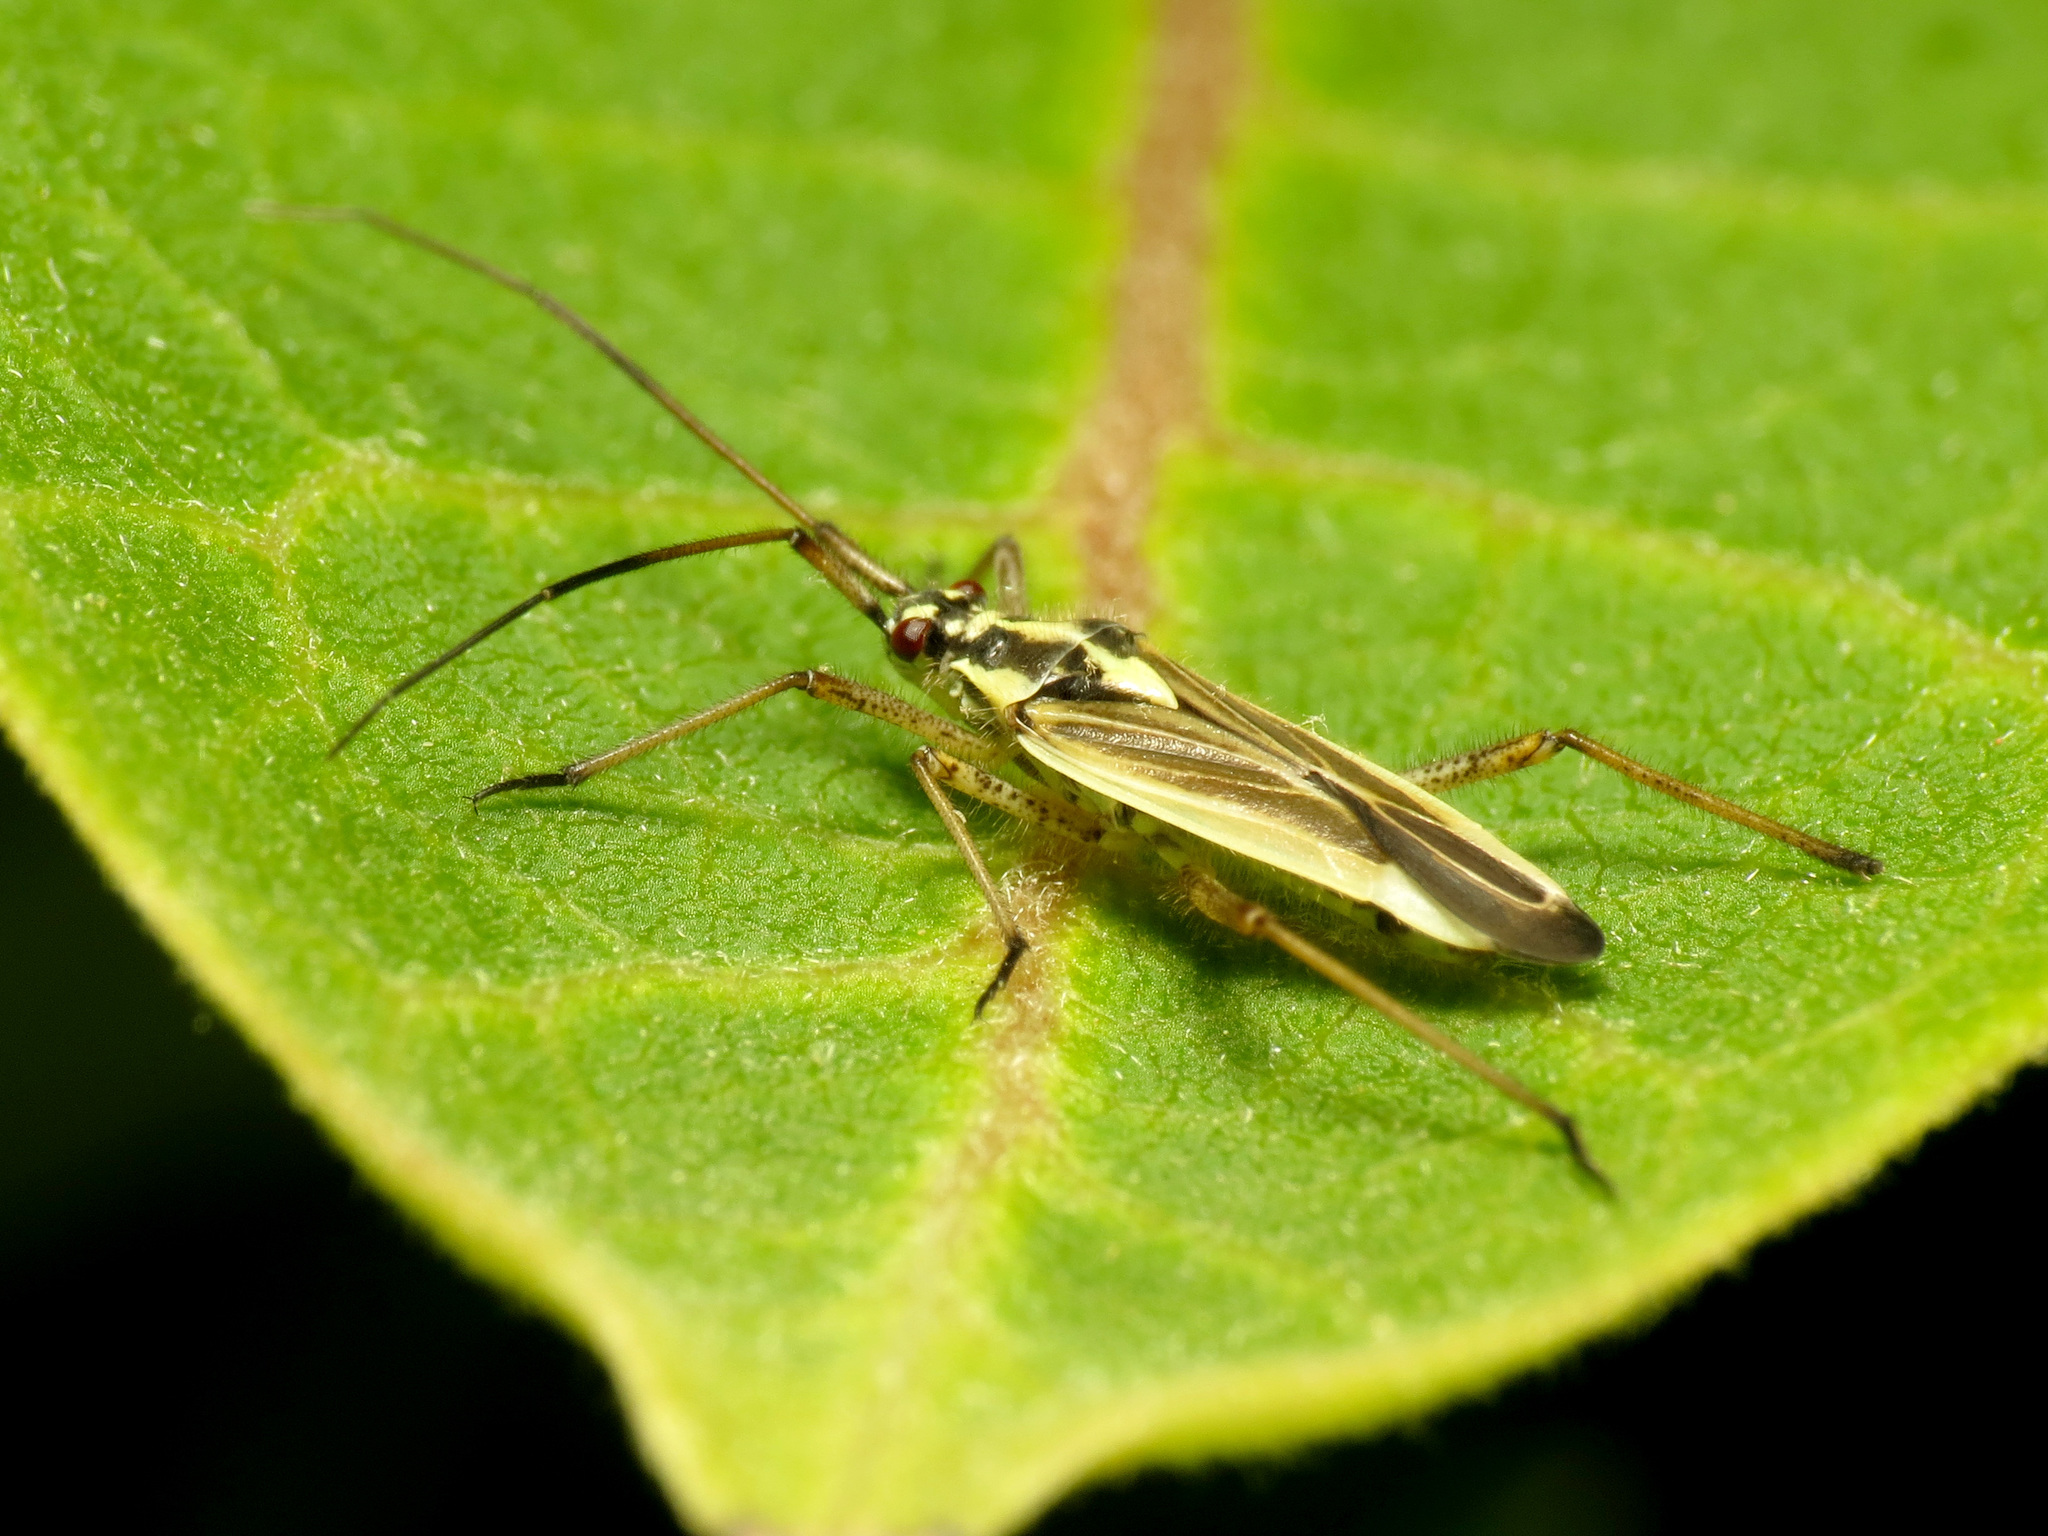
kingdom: Animalia
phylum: Arthropoda
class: Insecta
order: Hemiptera
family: Miridae
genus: Leptopterna
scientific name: Leptopterna dolabrata
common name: Meadow plant bug
